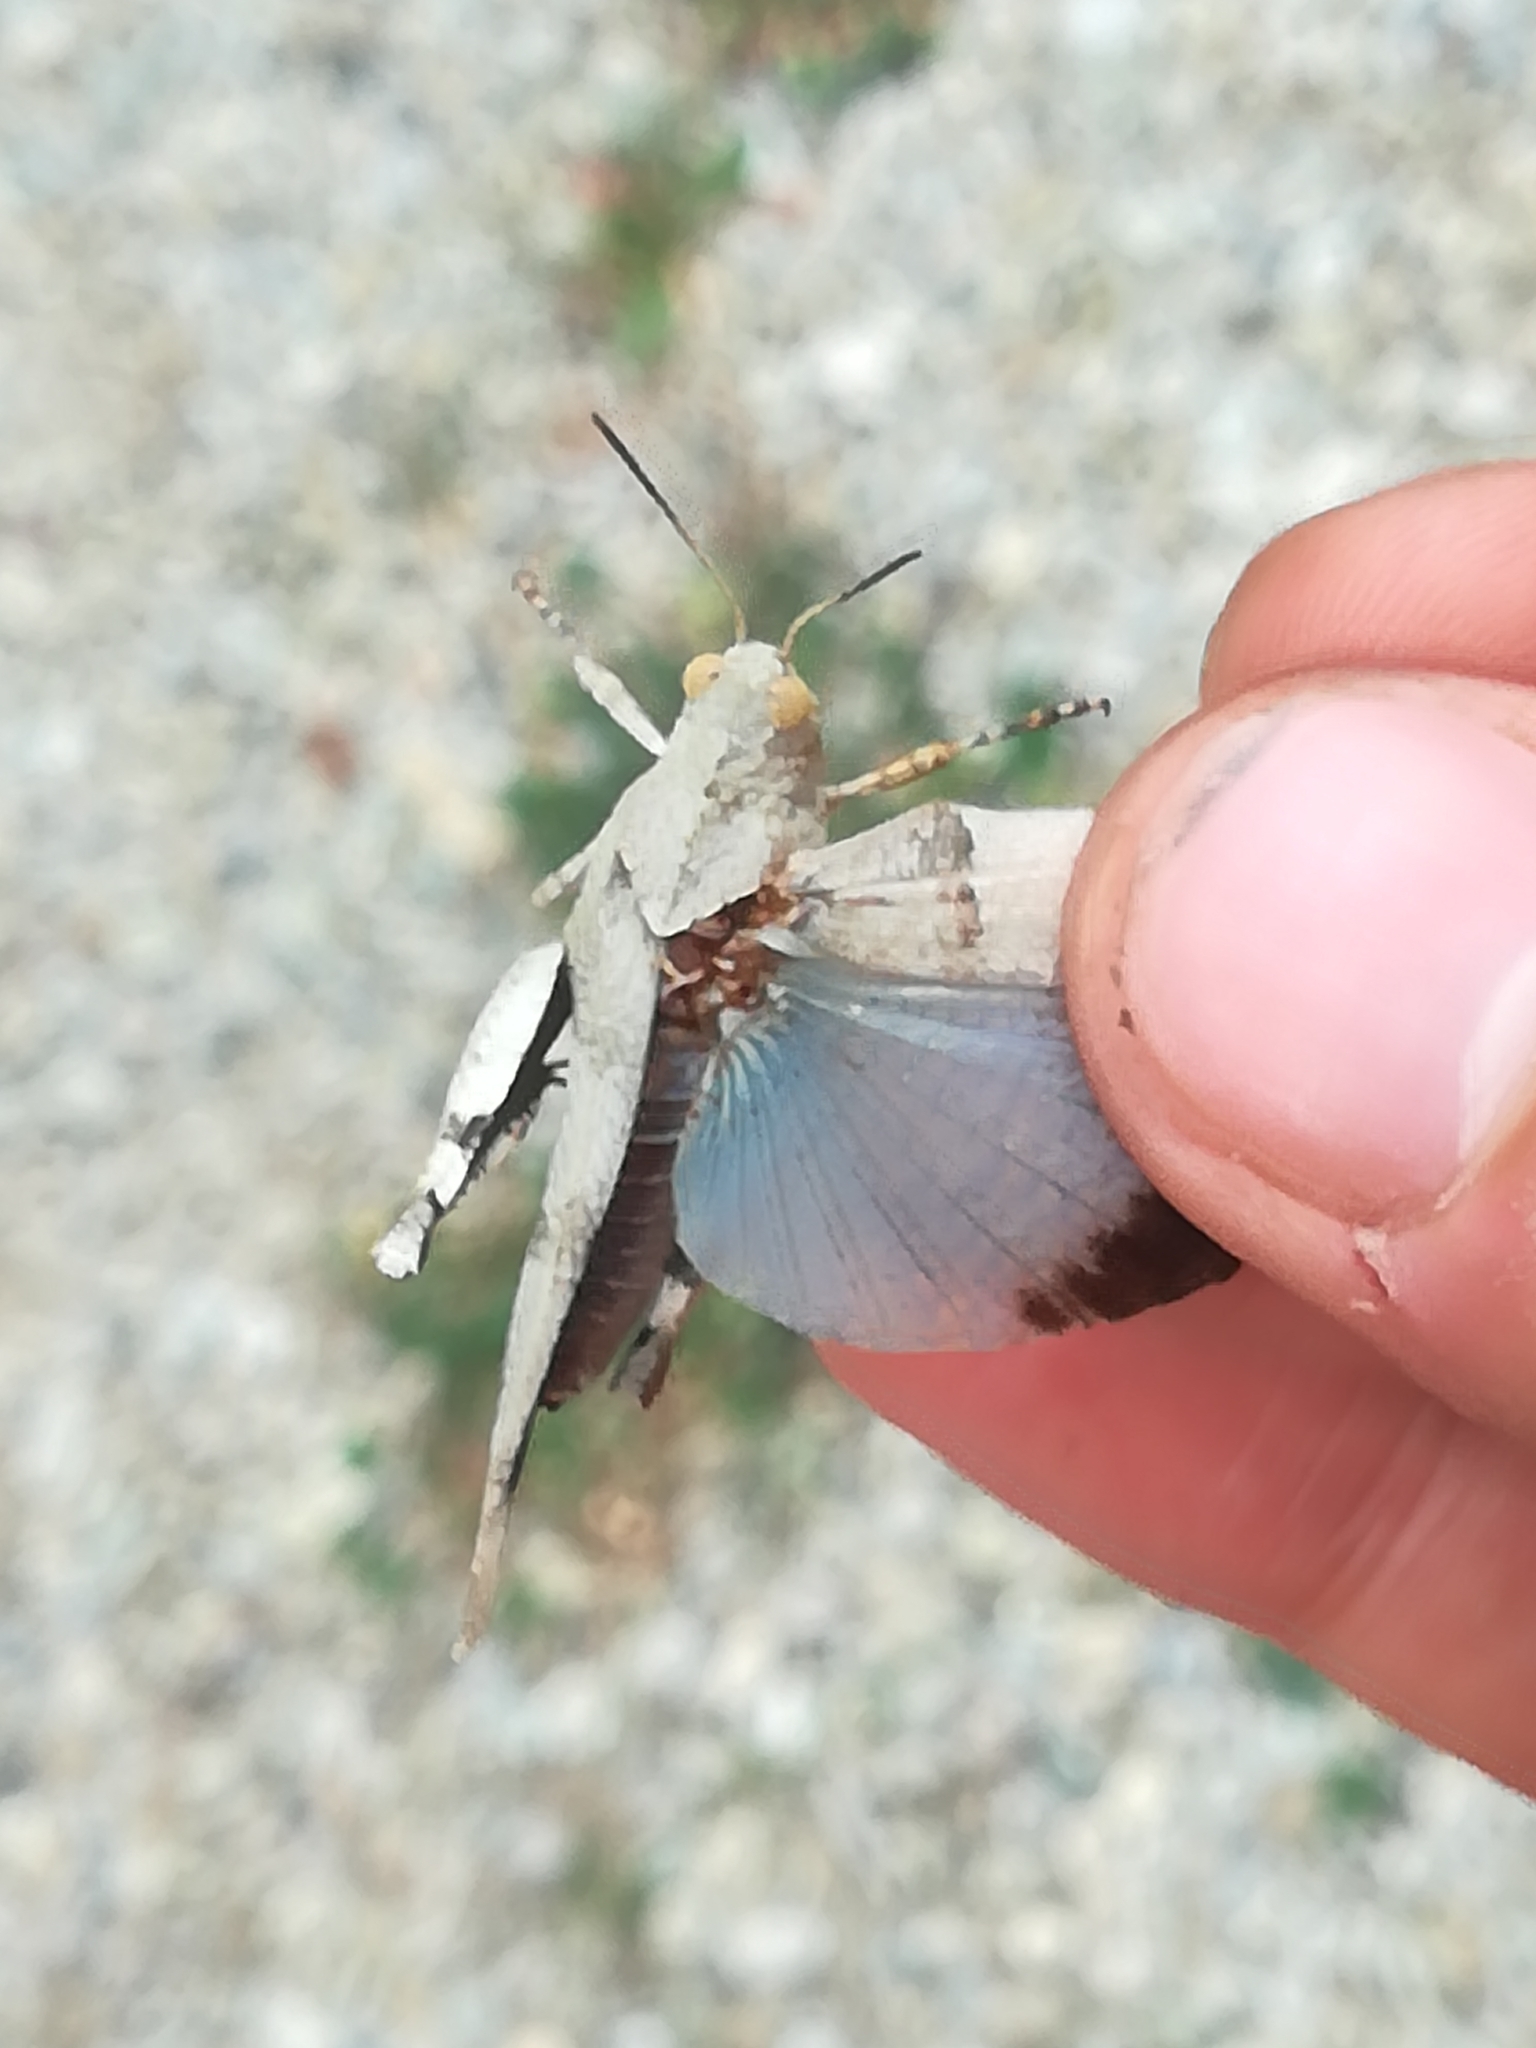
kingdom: Animalia
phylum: Arthropoda
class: Insecta
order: Orthoptera
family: Acrididae
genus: Oedipoda
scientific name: Oedipoda caerulescens
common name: Blue-winged grasshopper
